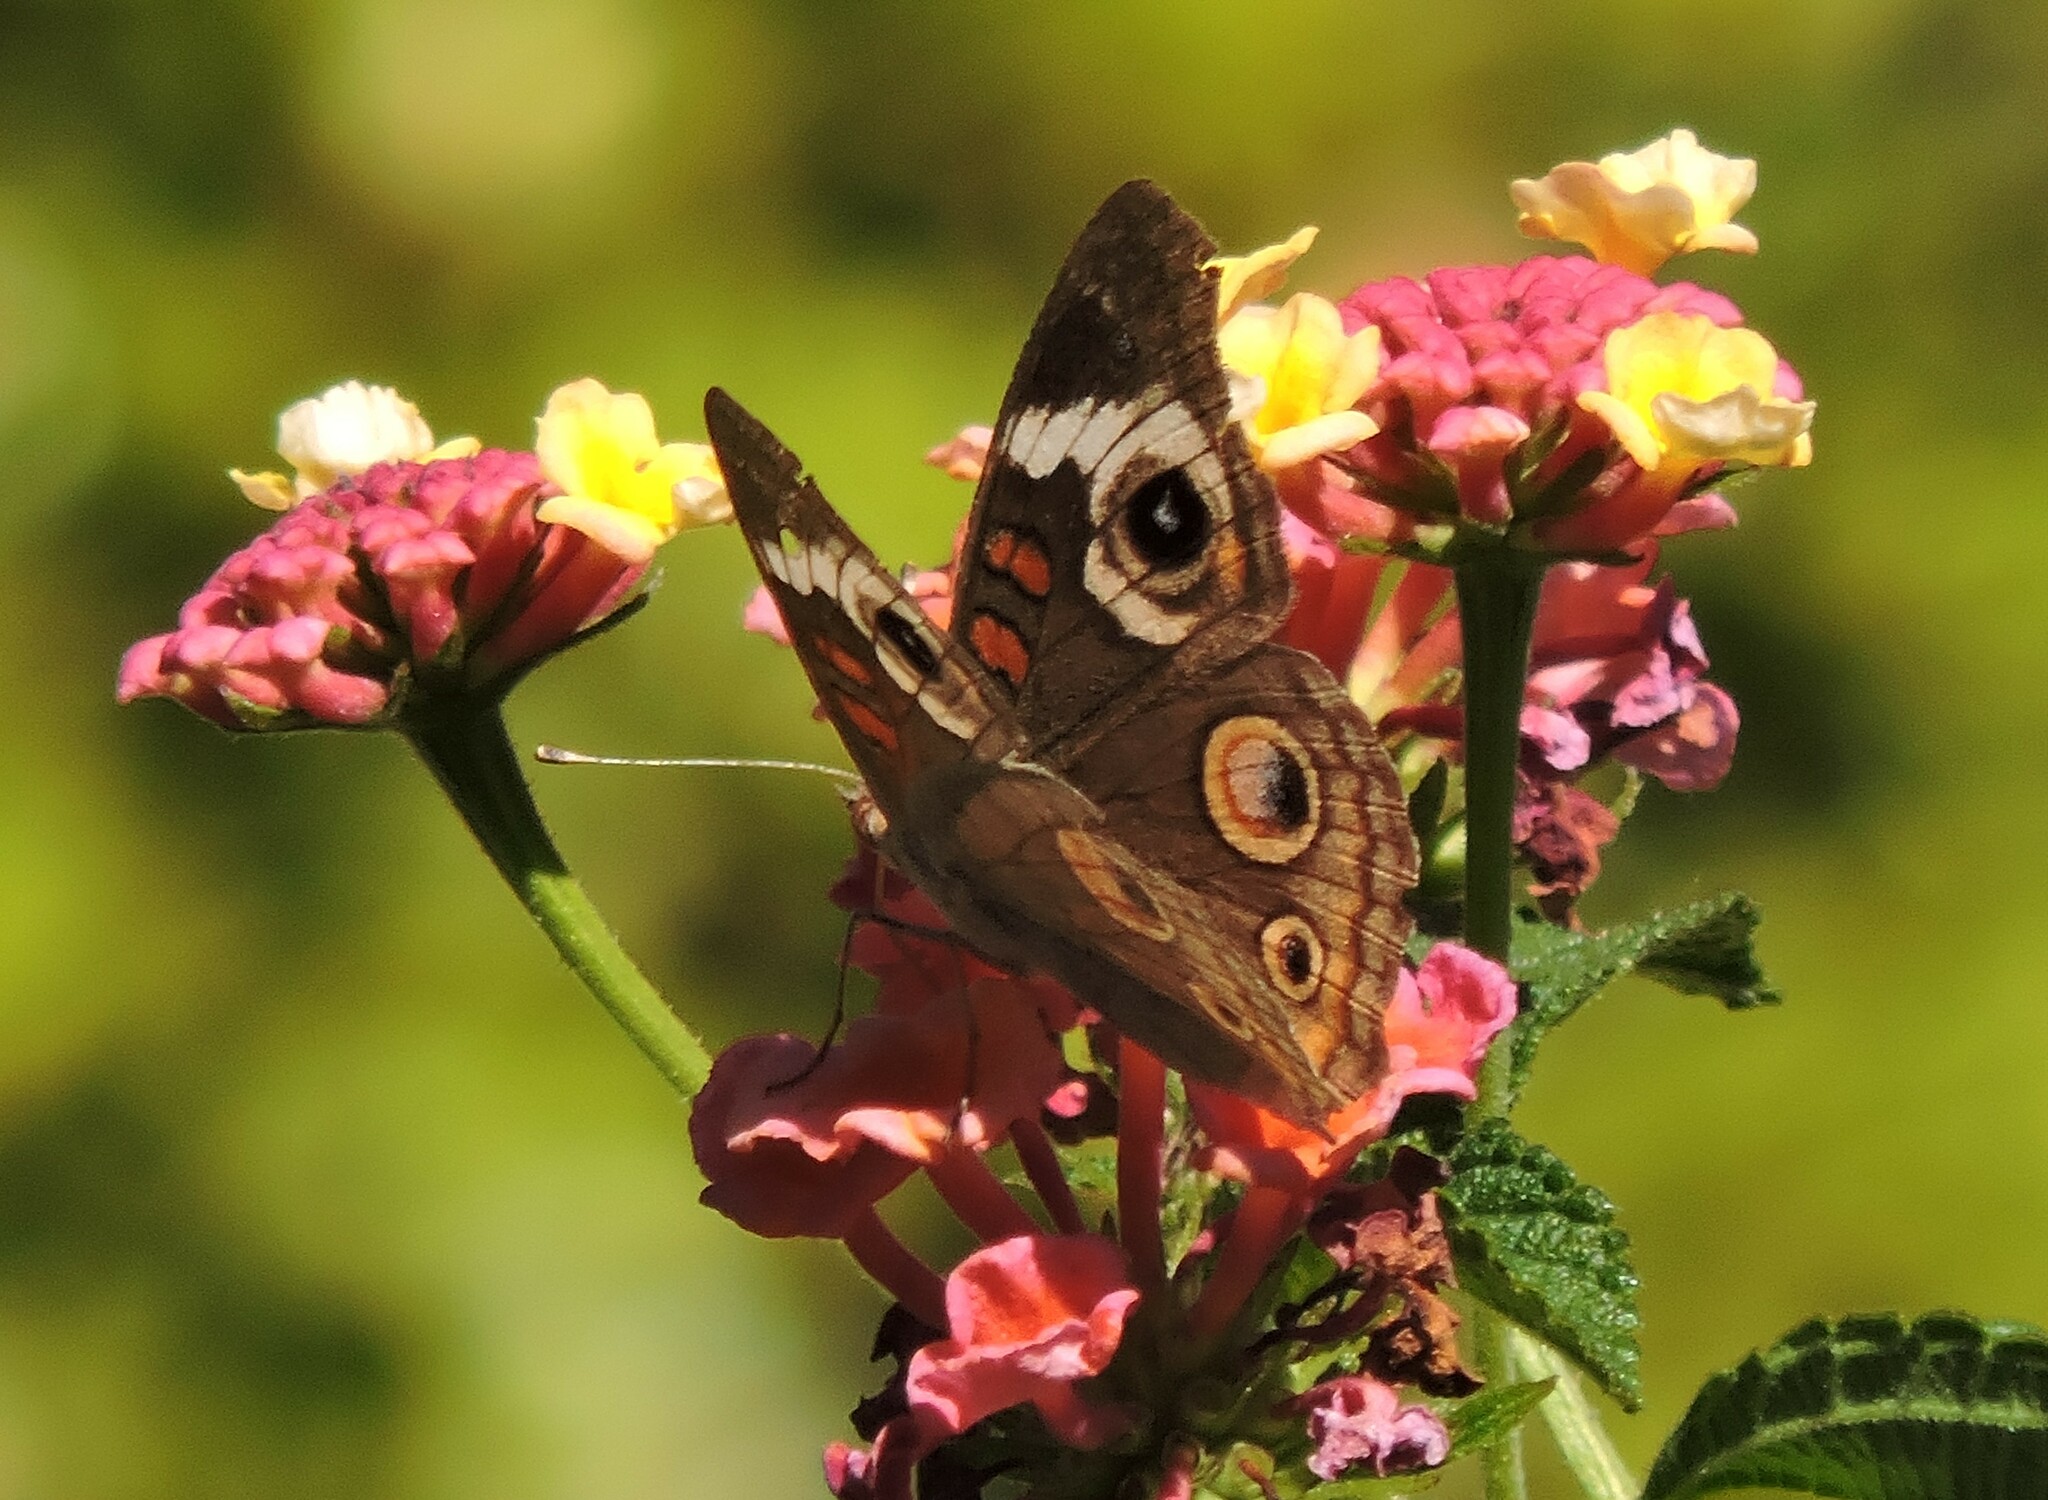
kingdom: Animalia
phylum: Arthropoda
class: Insecta
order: Lepidoptera
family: Nymphalidae
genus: Junonia
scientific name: Junonia grisea
